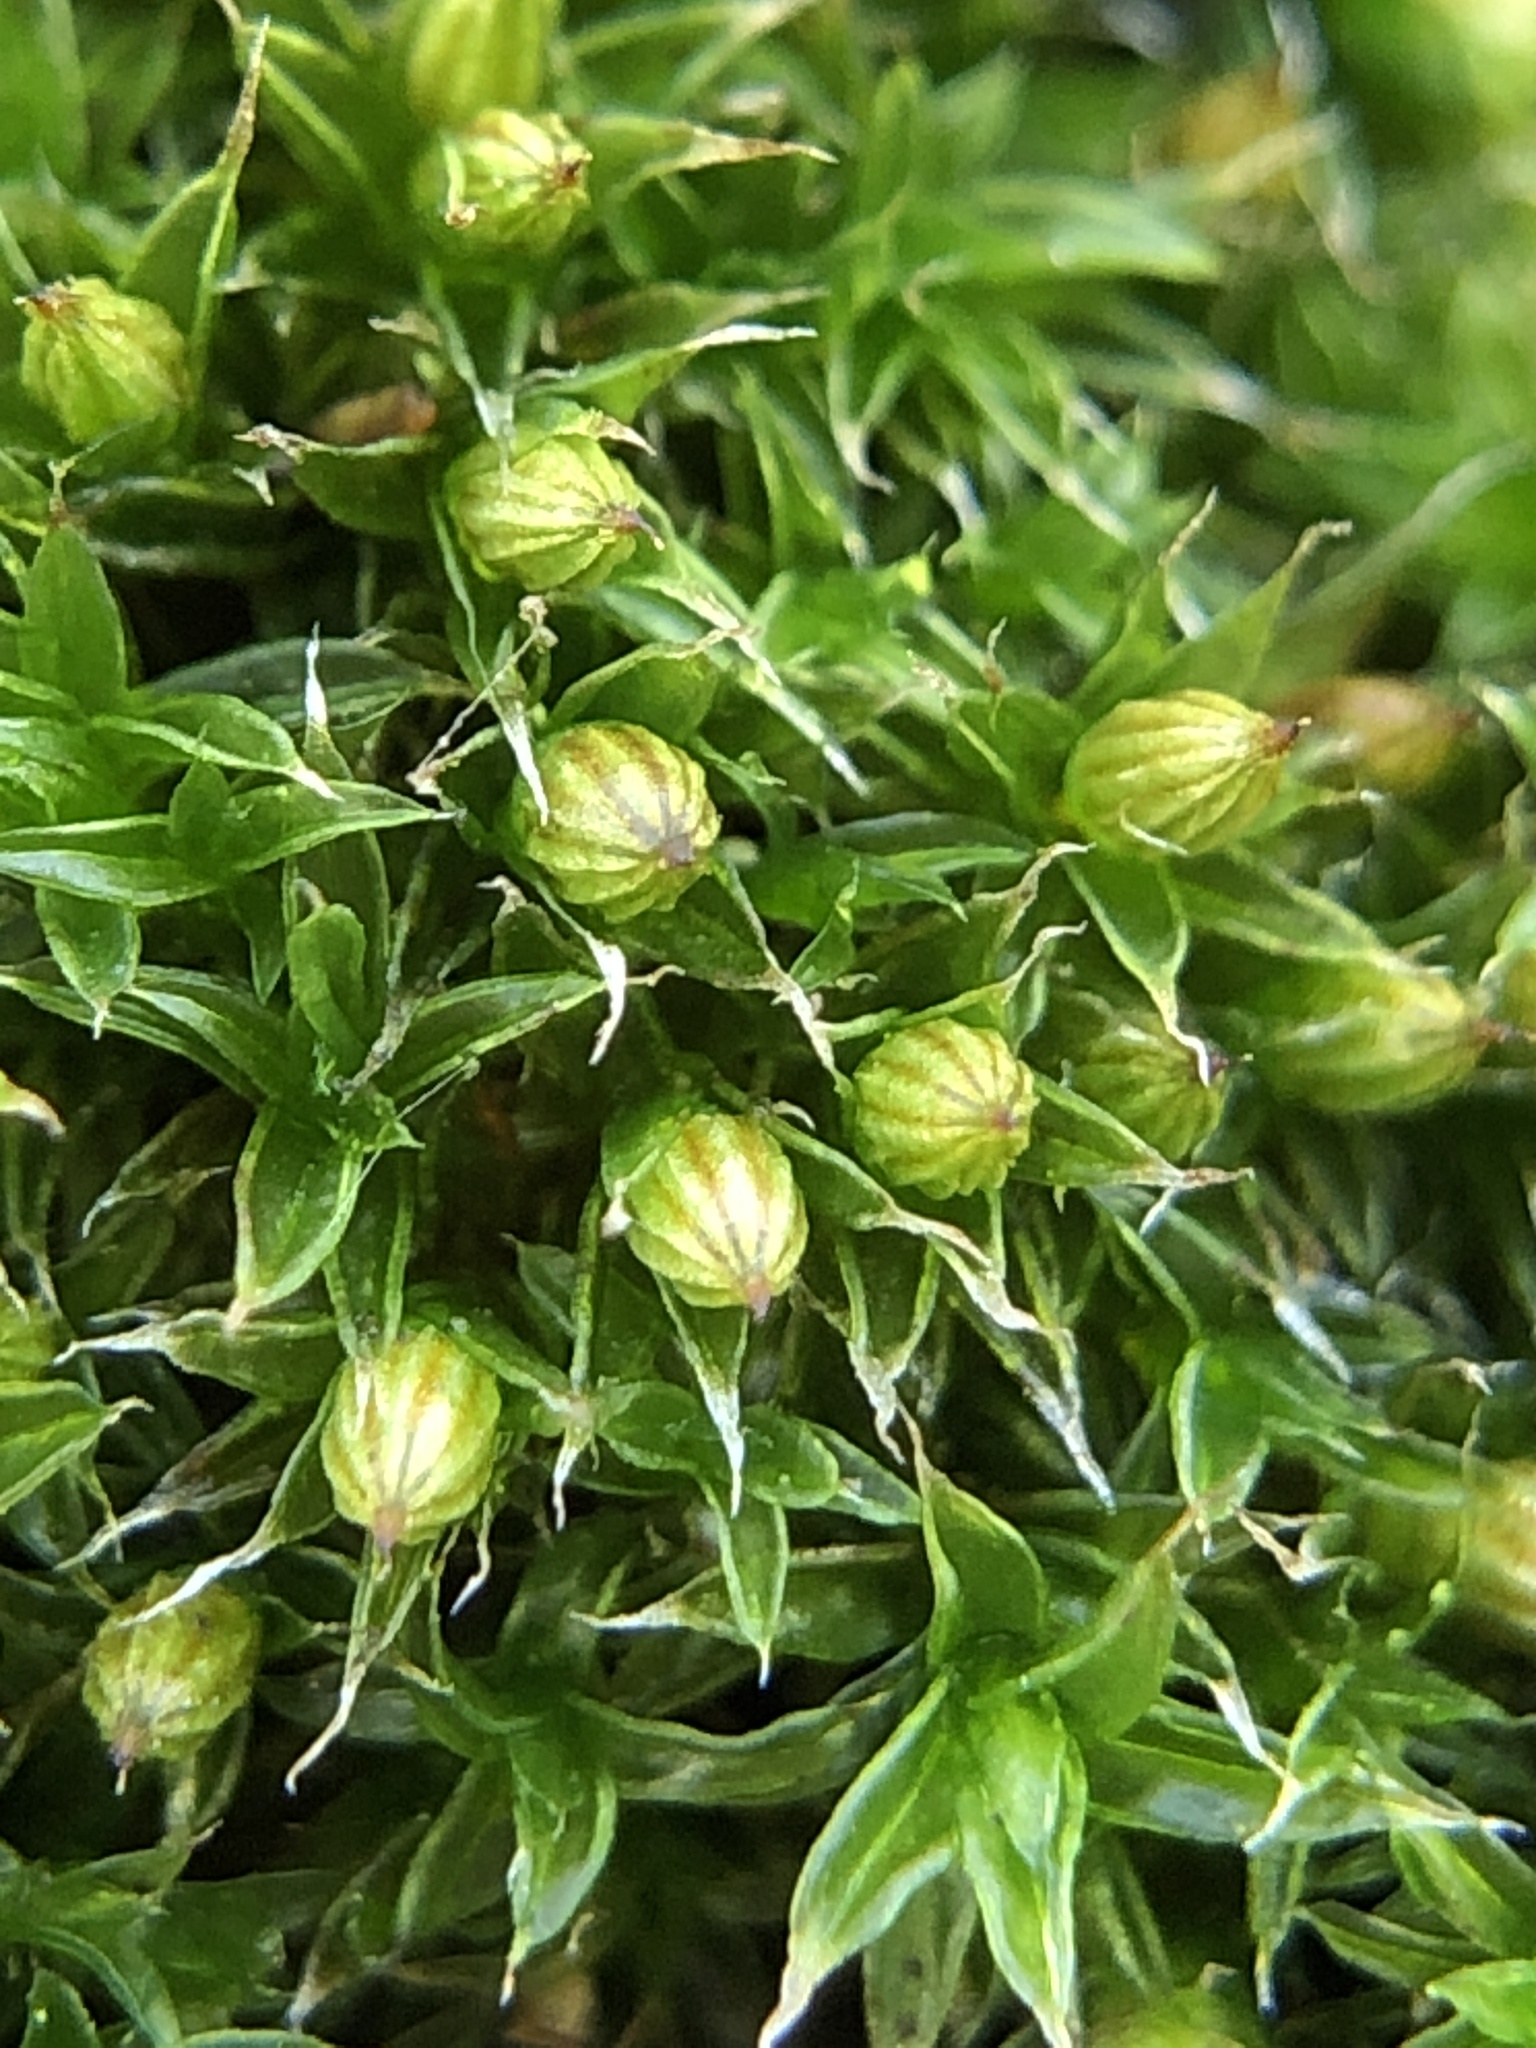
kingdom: Plantae
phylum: Bryophyta
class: Bryopsida
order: Orthotrichales
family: Orthotrichaceae
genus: Orthotrichum
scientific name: Orthotrichum diaphanum
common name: White-tipped bristle-moss
